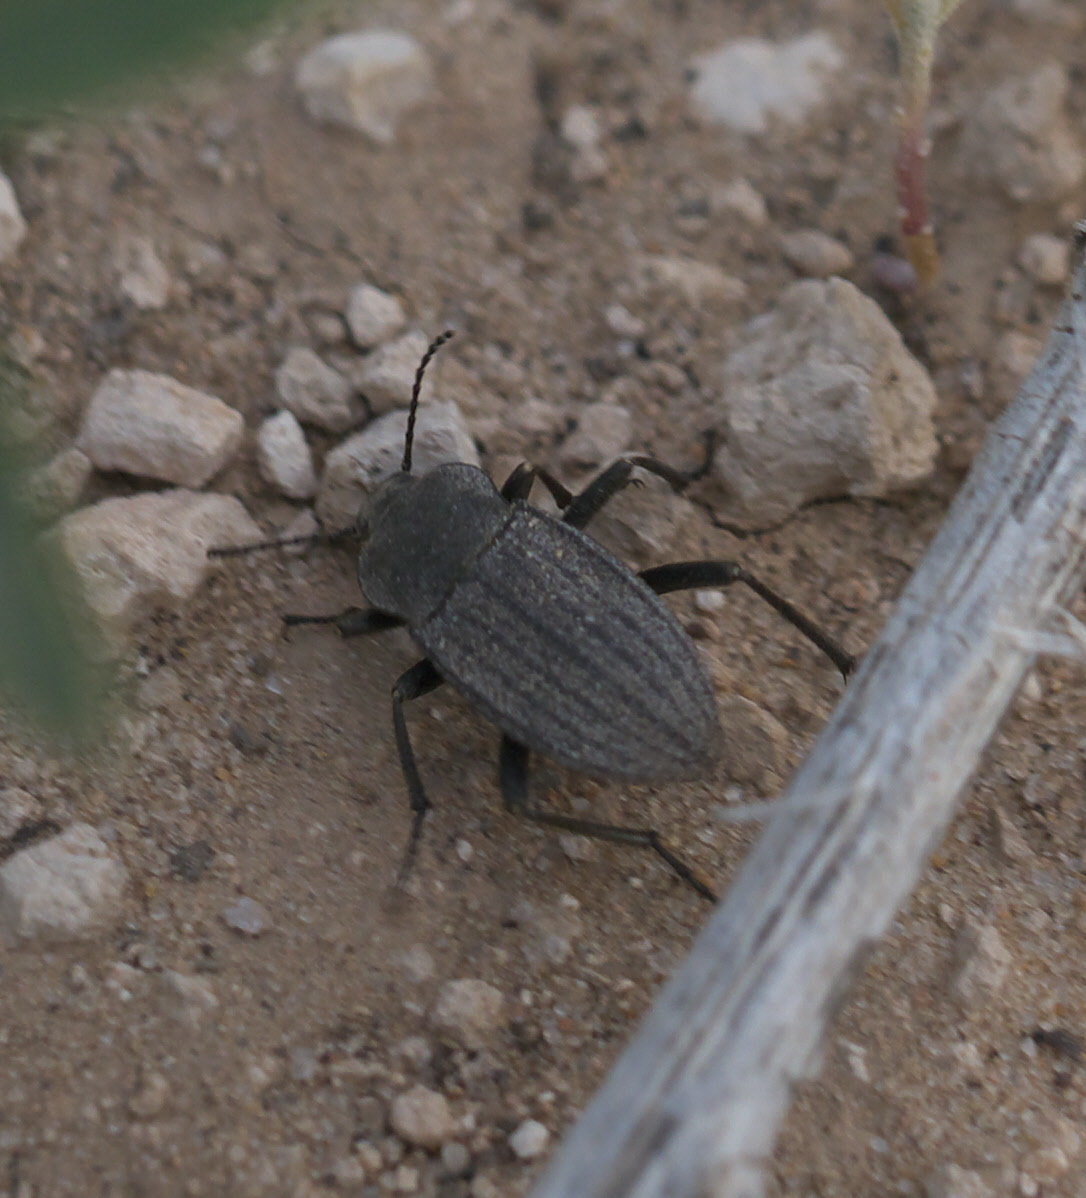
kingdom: Animalia
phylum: Arthropoda
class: Insecta
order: Coleoptera
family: Tenebrionidae
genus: Eleodes
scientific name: Eleodes tricostata
